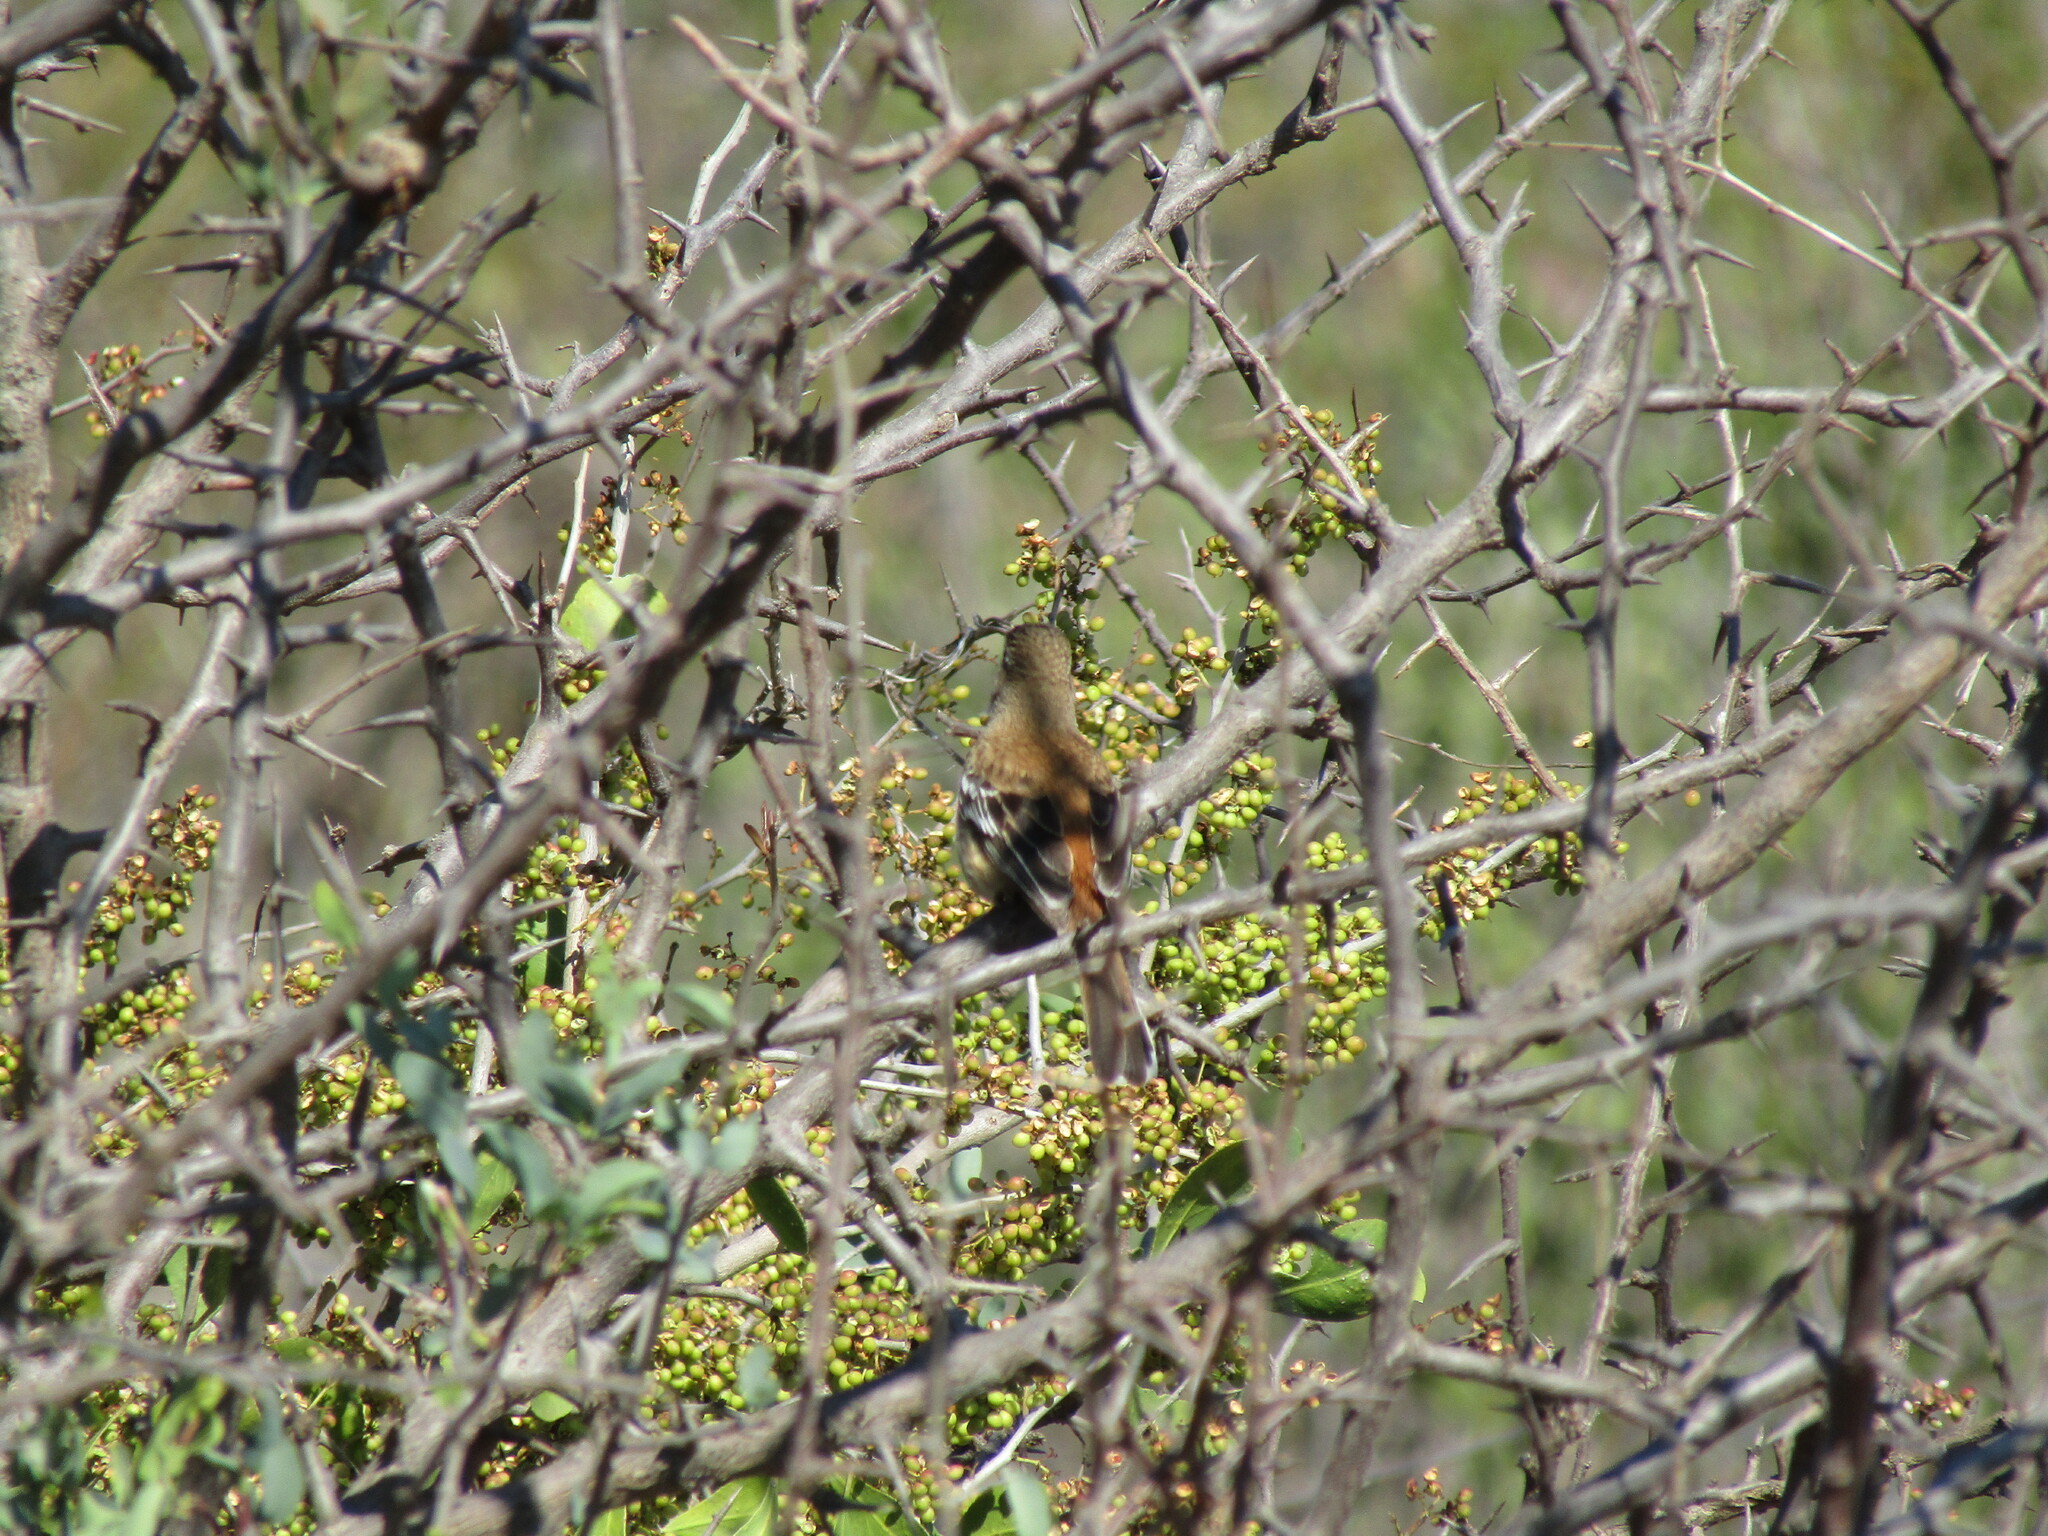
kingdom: Animalia
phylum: Chordata
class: Aves
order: Passeriformes
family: Muscicapidae
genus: Erythropygia
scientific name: Erythropygia leucophrys
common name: White-browed scrub robin
